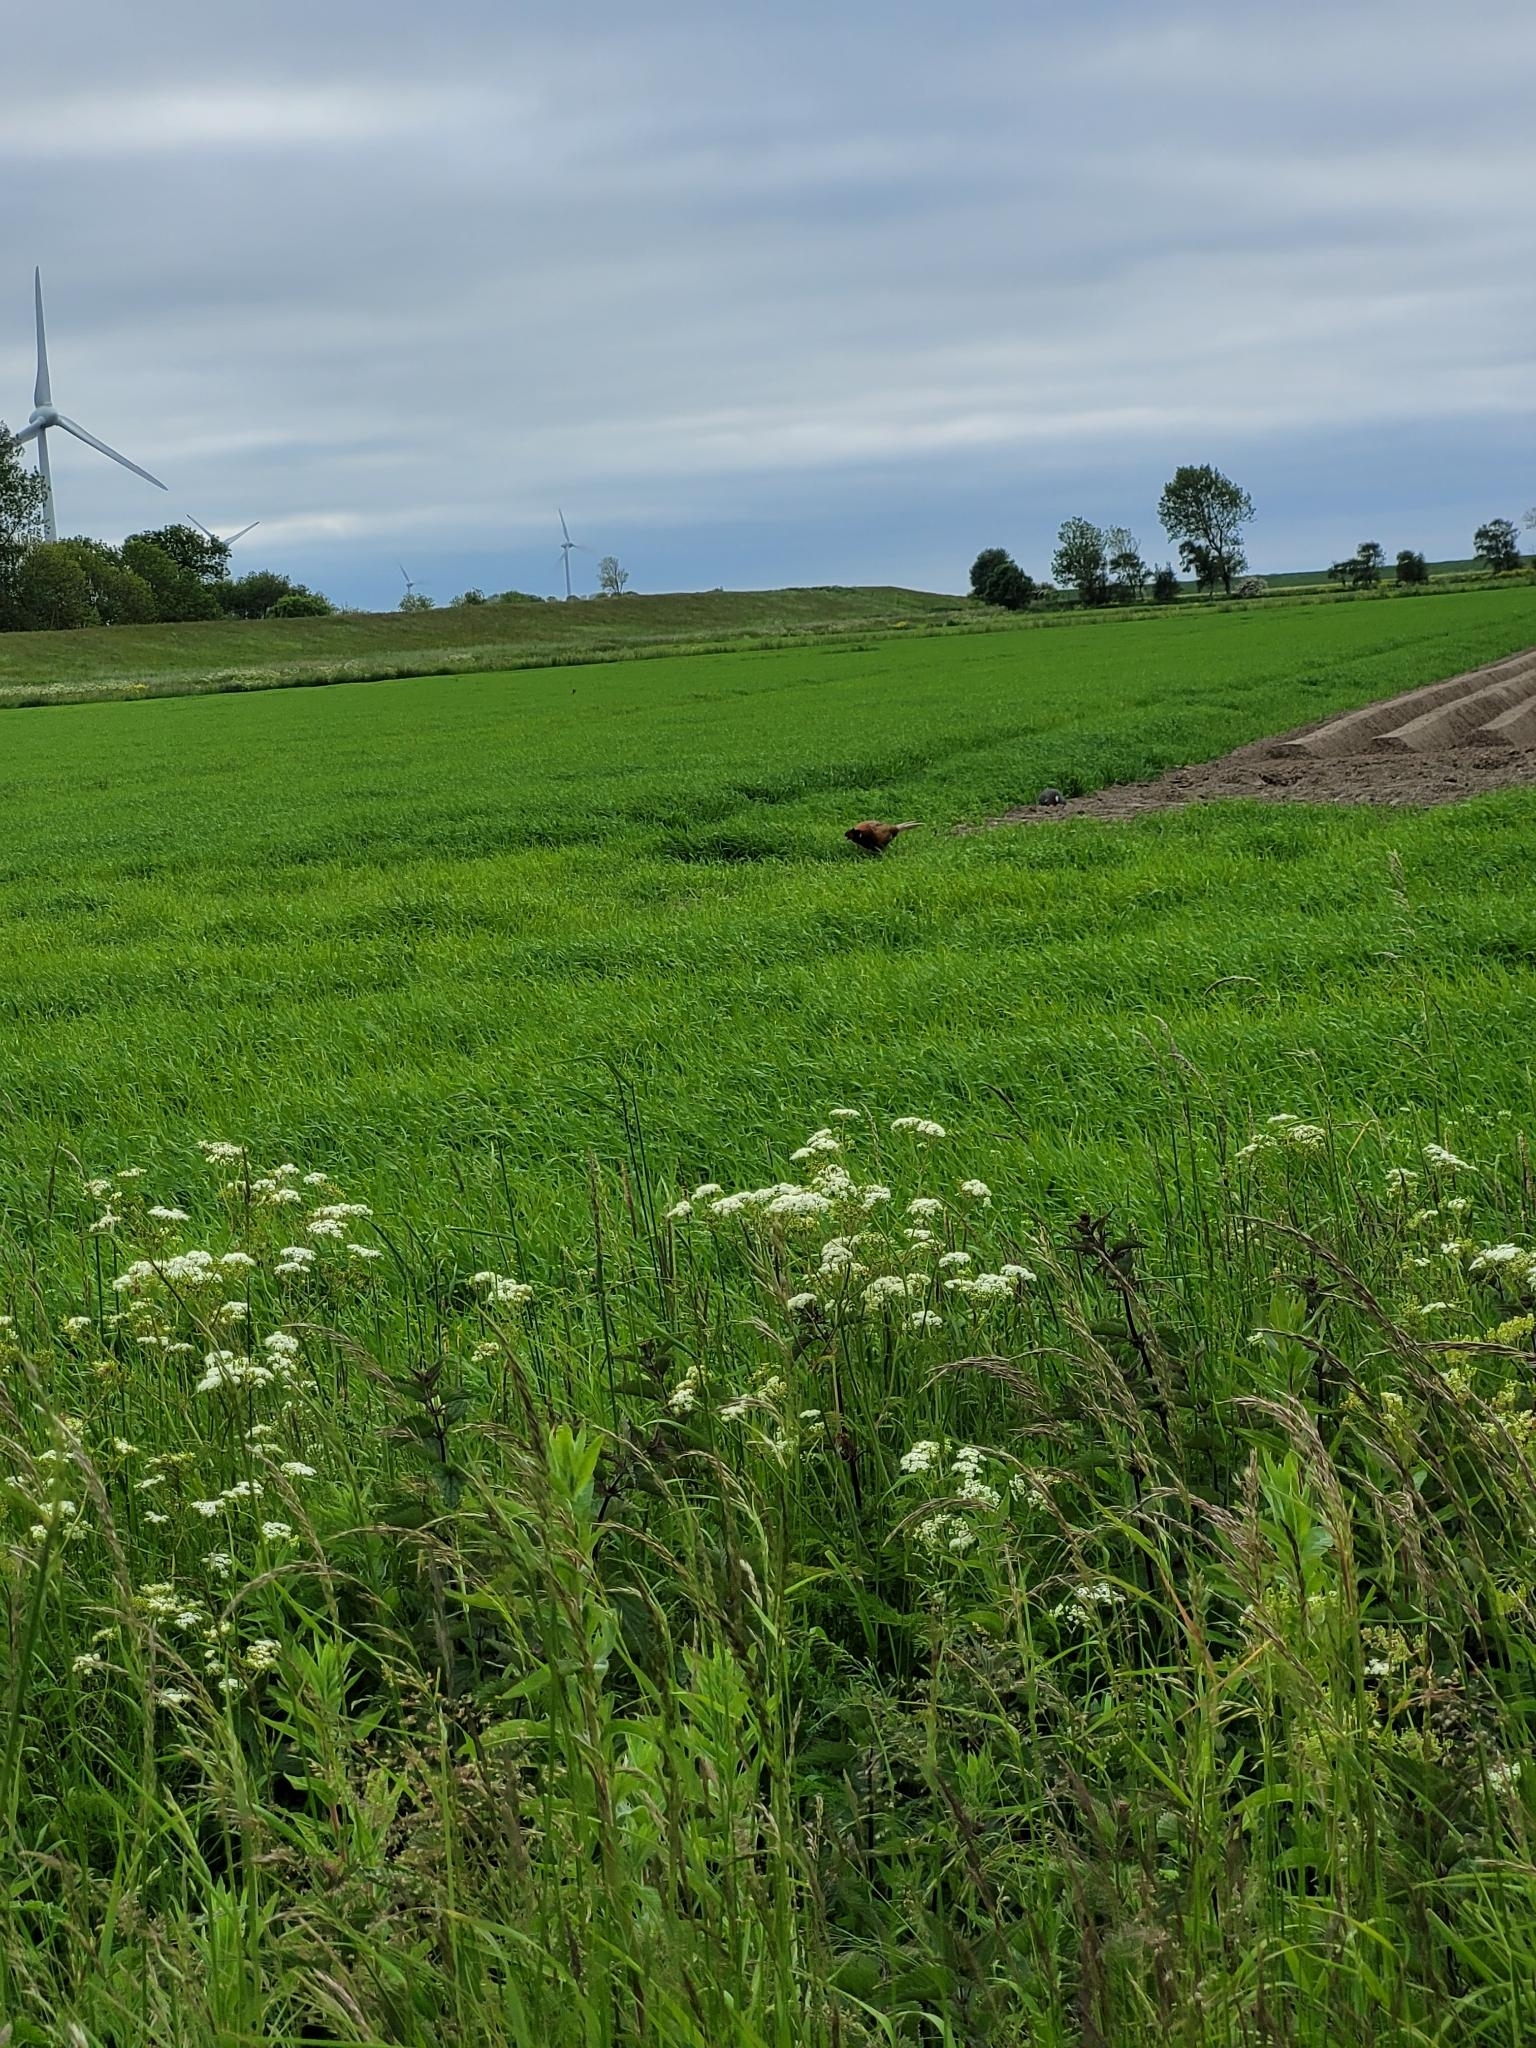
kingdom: Animalia
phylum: Chordata
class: Aves
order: Galliformes
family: Phasianidae
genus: Phasianus
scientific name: Phasianus colchicus
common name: Common pheasant
